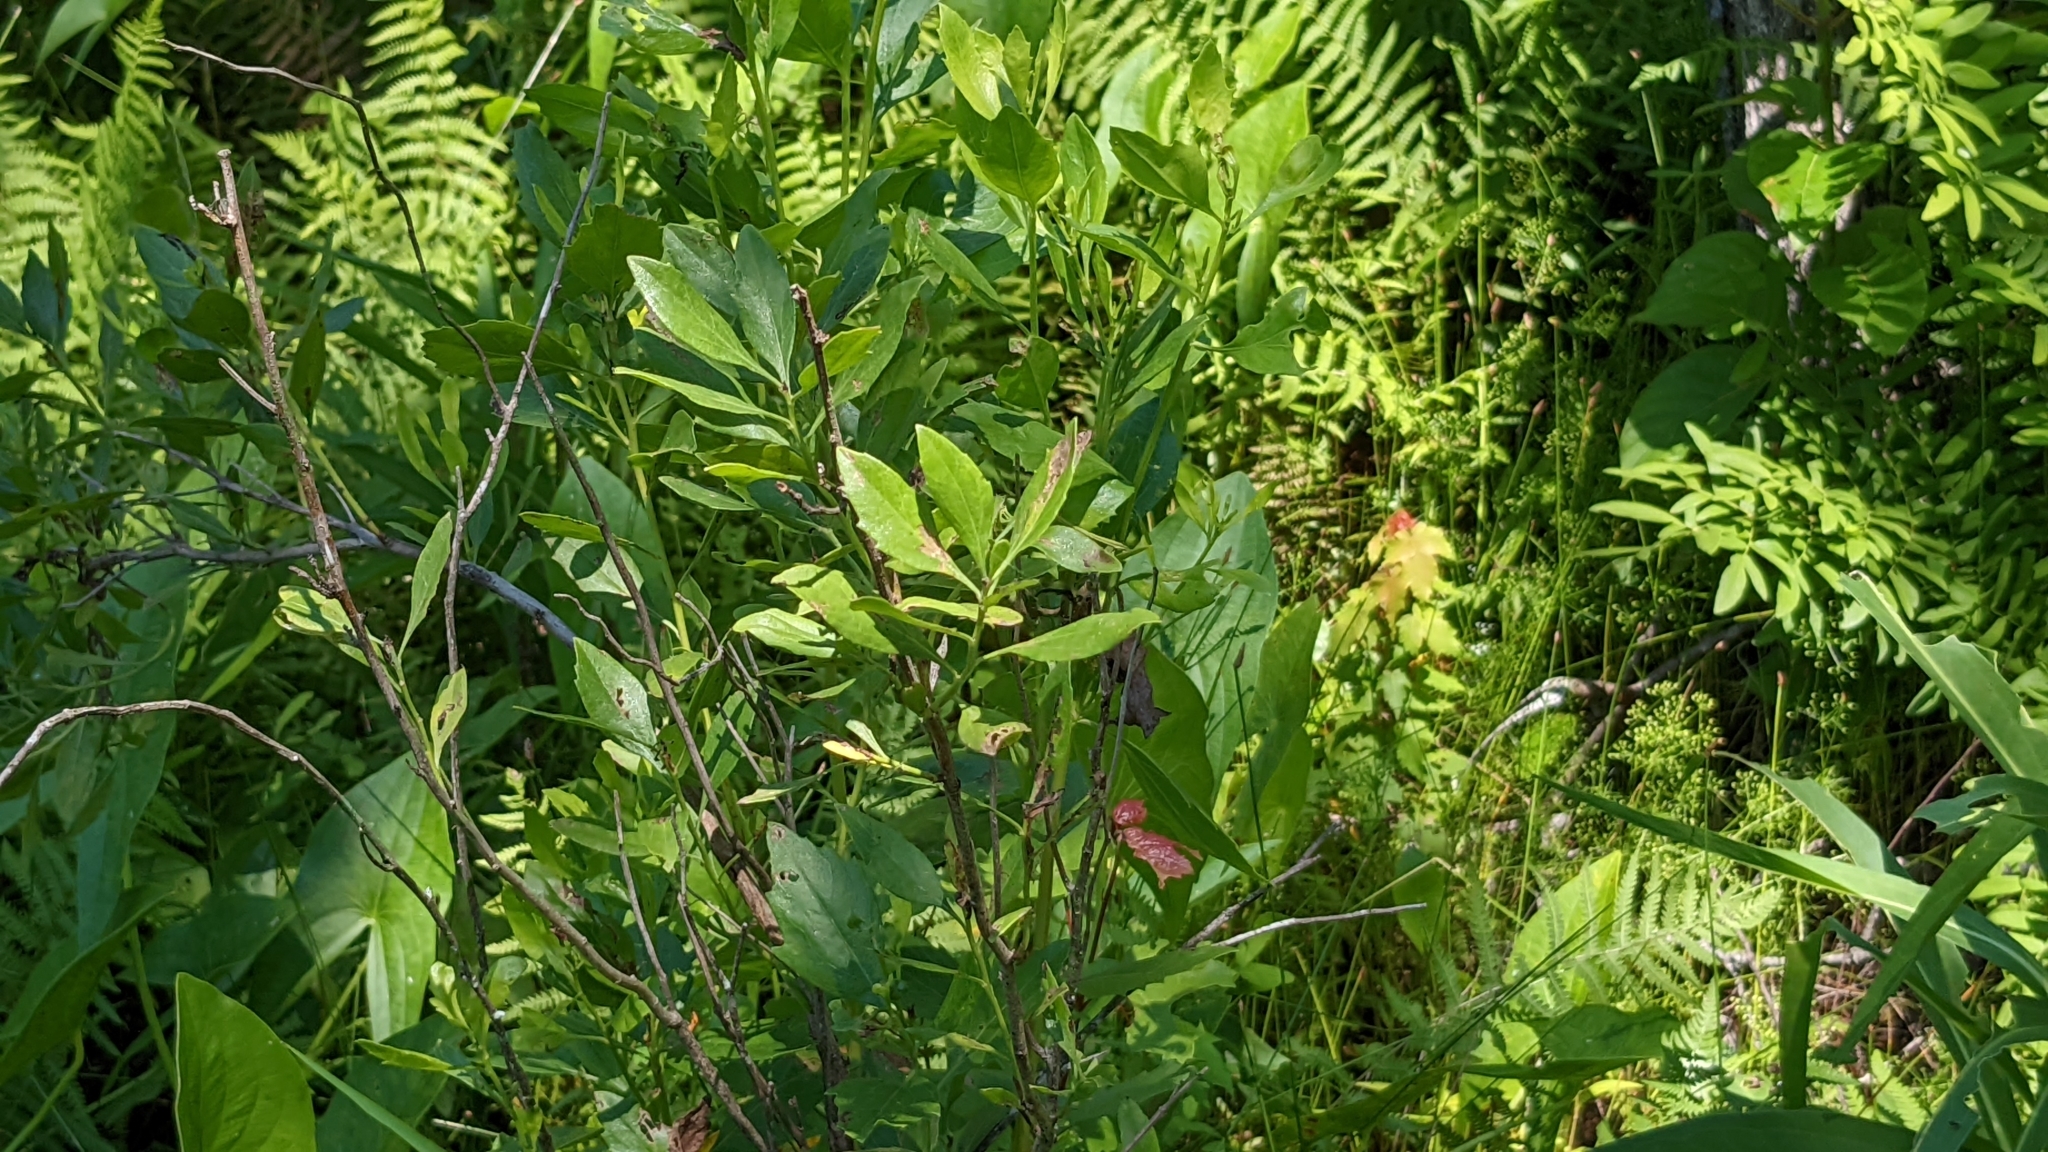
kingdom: Plantae
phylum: Tracheophyta
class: Magnoliopsida
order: Asterales
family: Asteraceae
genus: Baccharis
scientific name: Baccharis halimifolia
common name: Eastern baccharis
